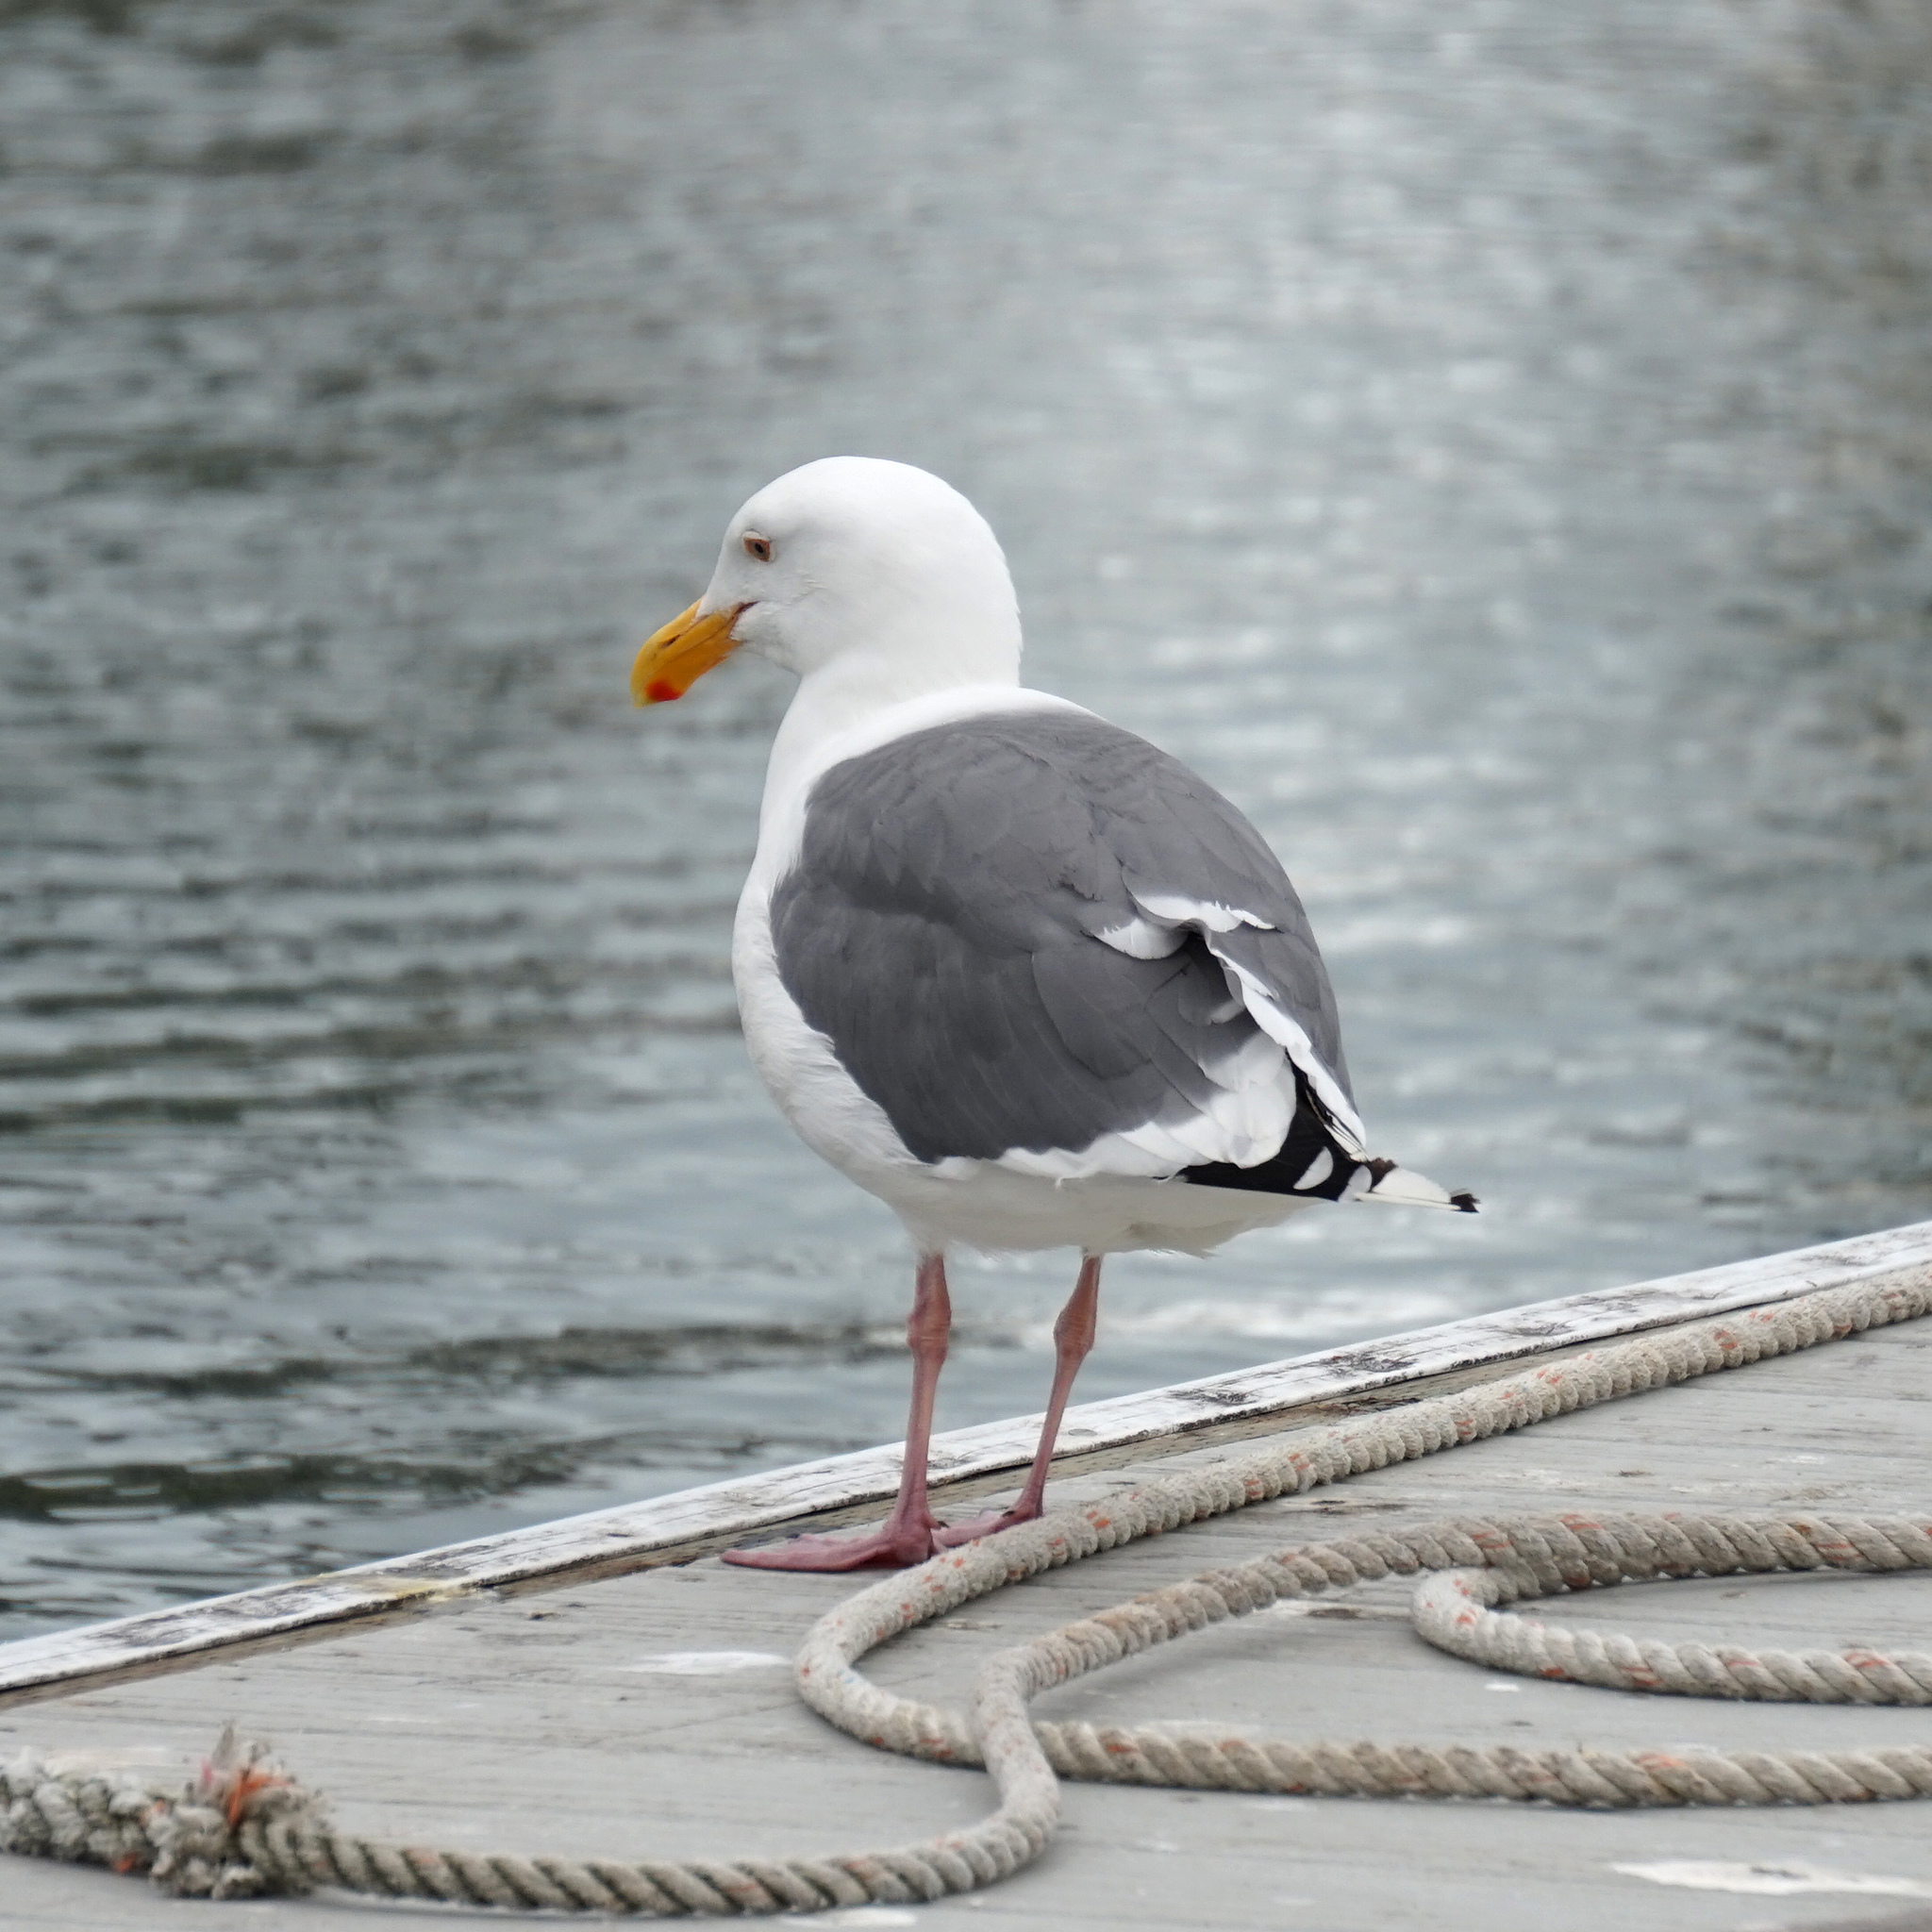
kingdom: Animalia
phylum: Chordata
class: Aves
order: Charadriiformes
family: Laridae
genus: Larus
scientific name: Larus occidentalis
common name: Western gull
